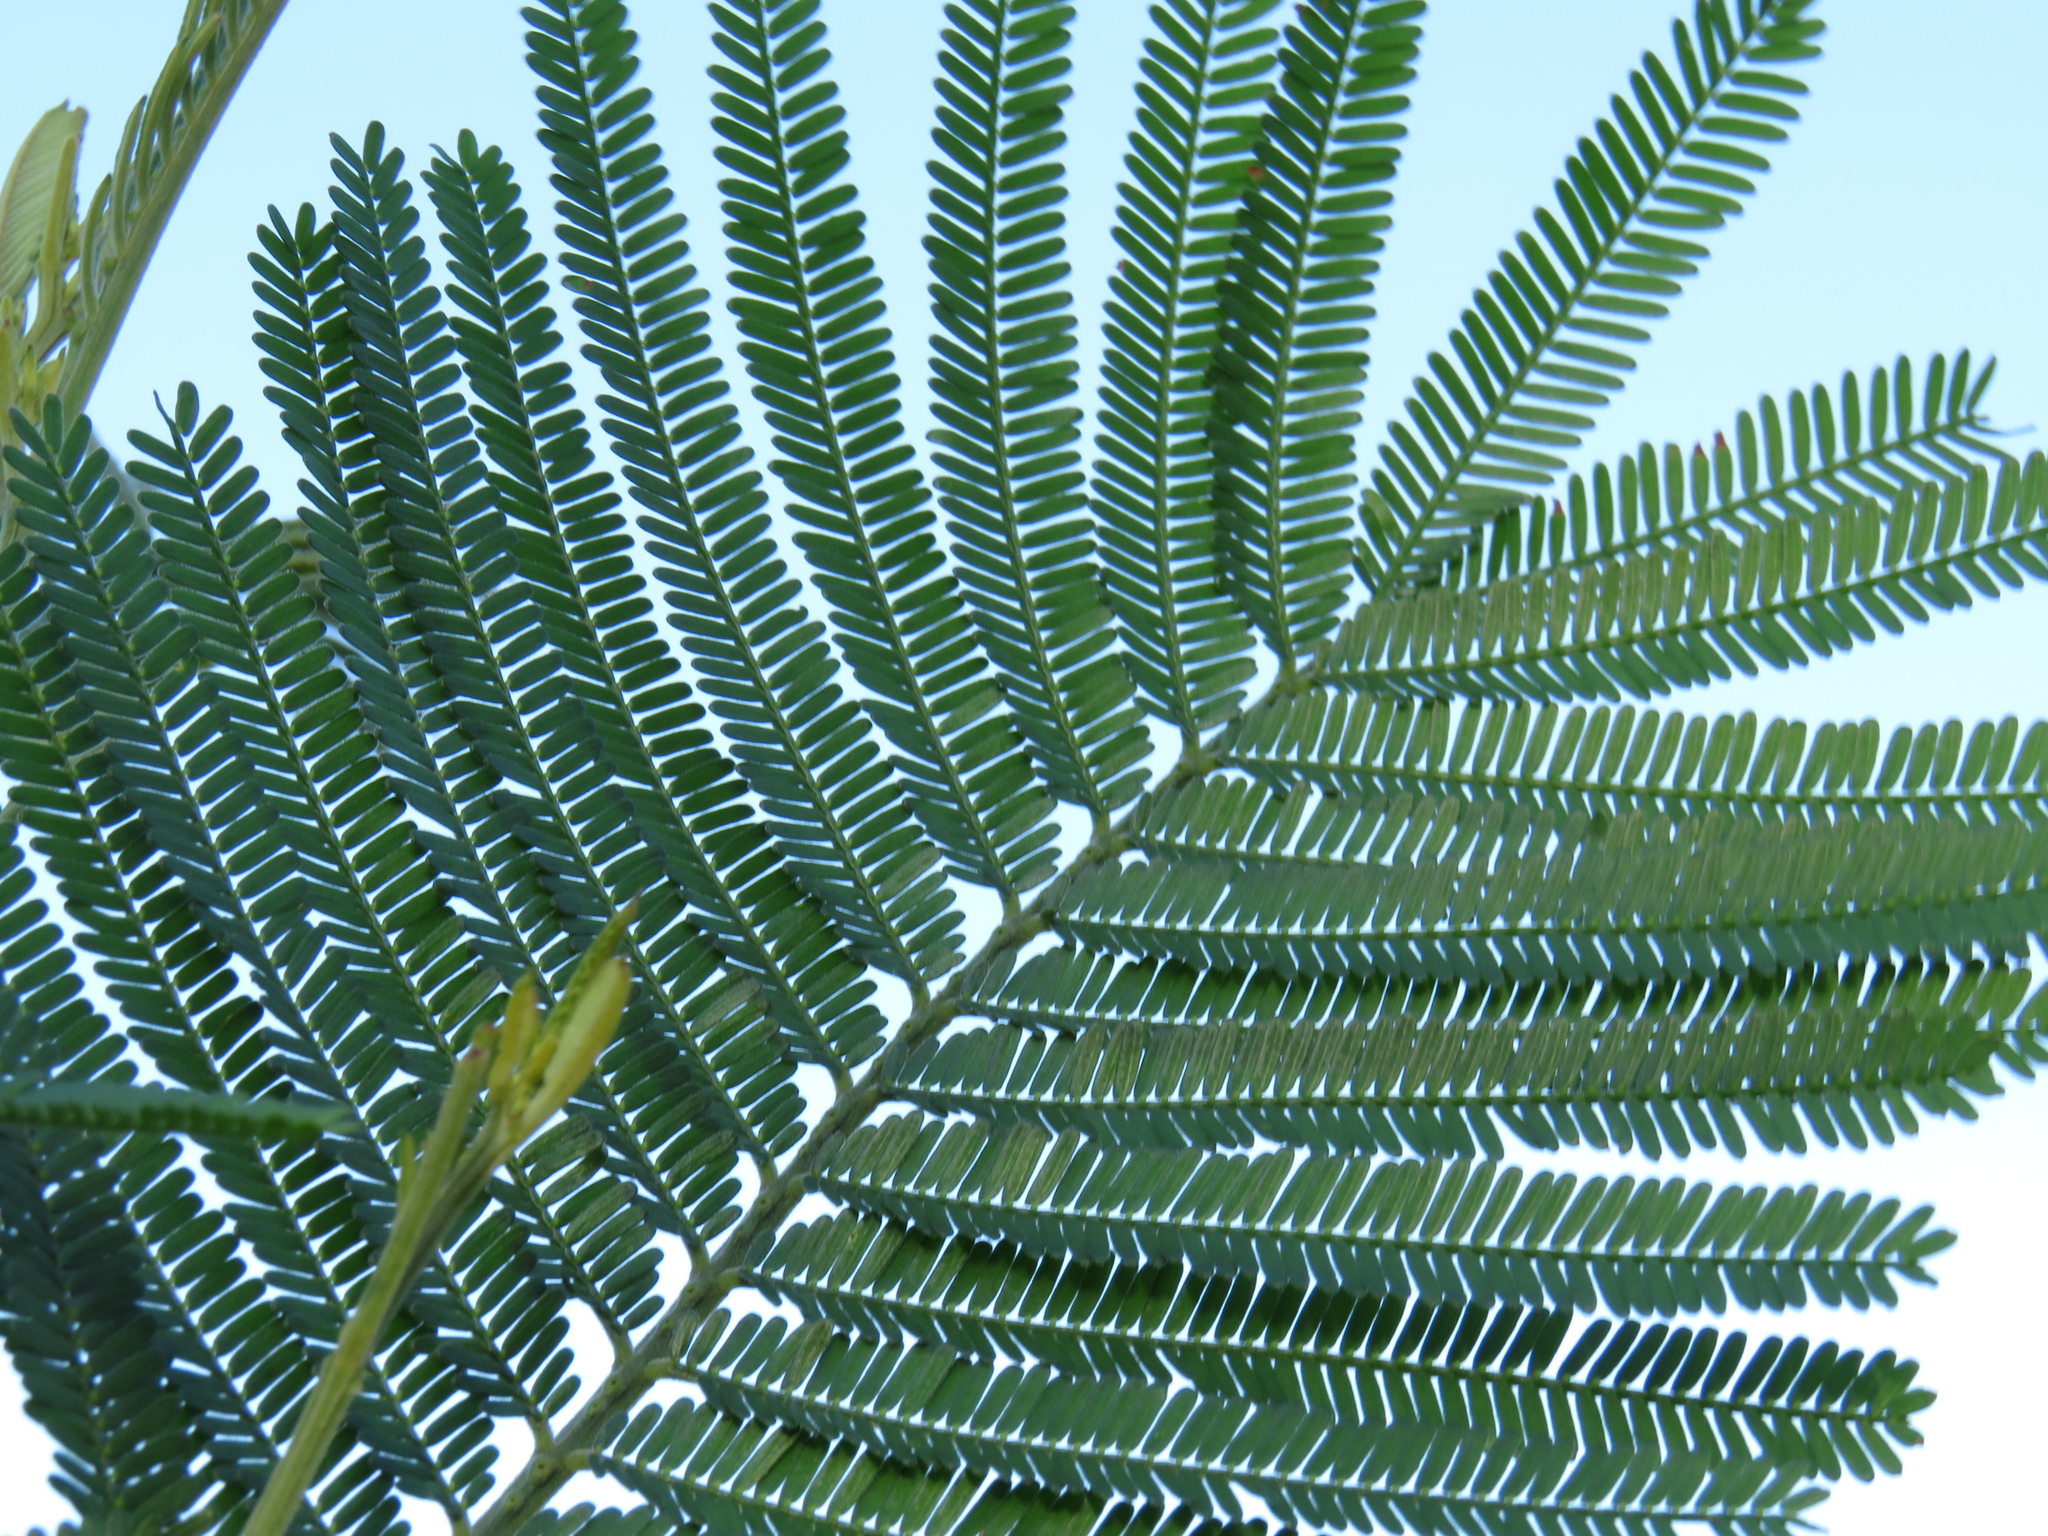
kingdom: Plantae
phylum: Tracheophyta
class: Magnoliopsida
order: Fabales
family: Fabaceae
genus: Acacia
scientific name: Acacia mearnsii
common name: Black wattle
